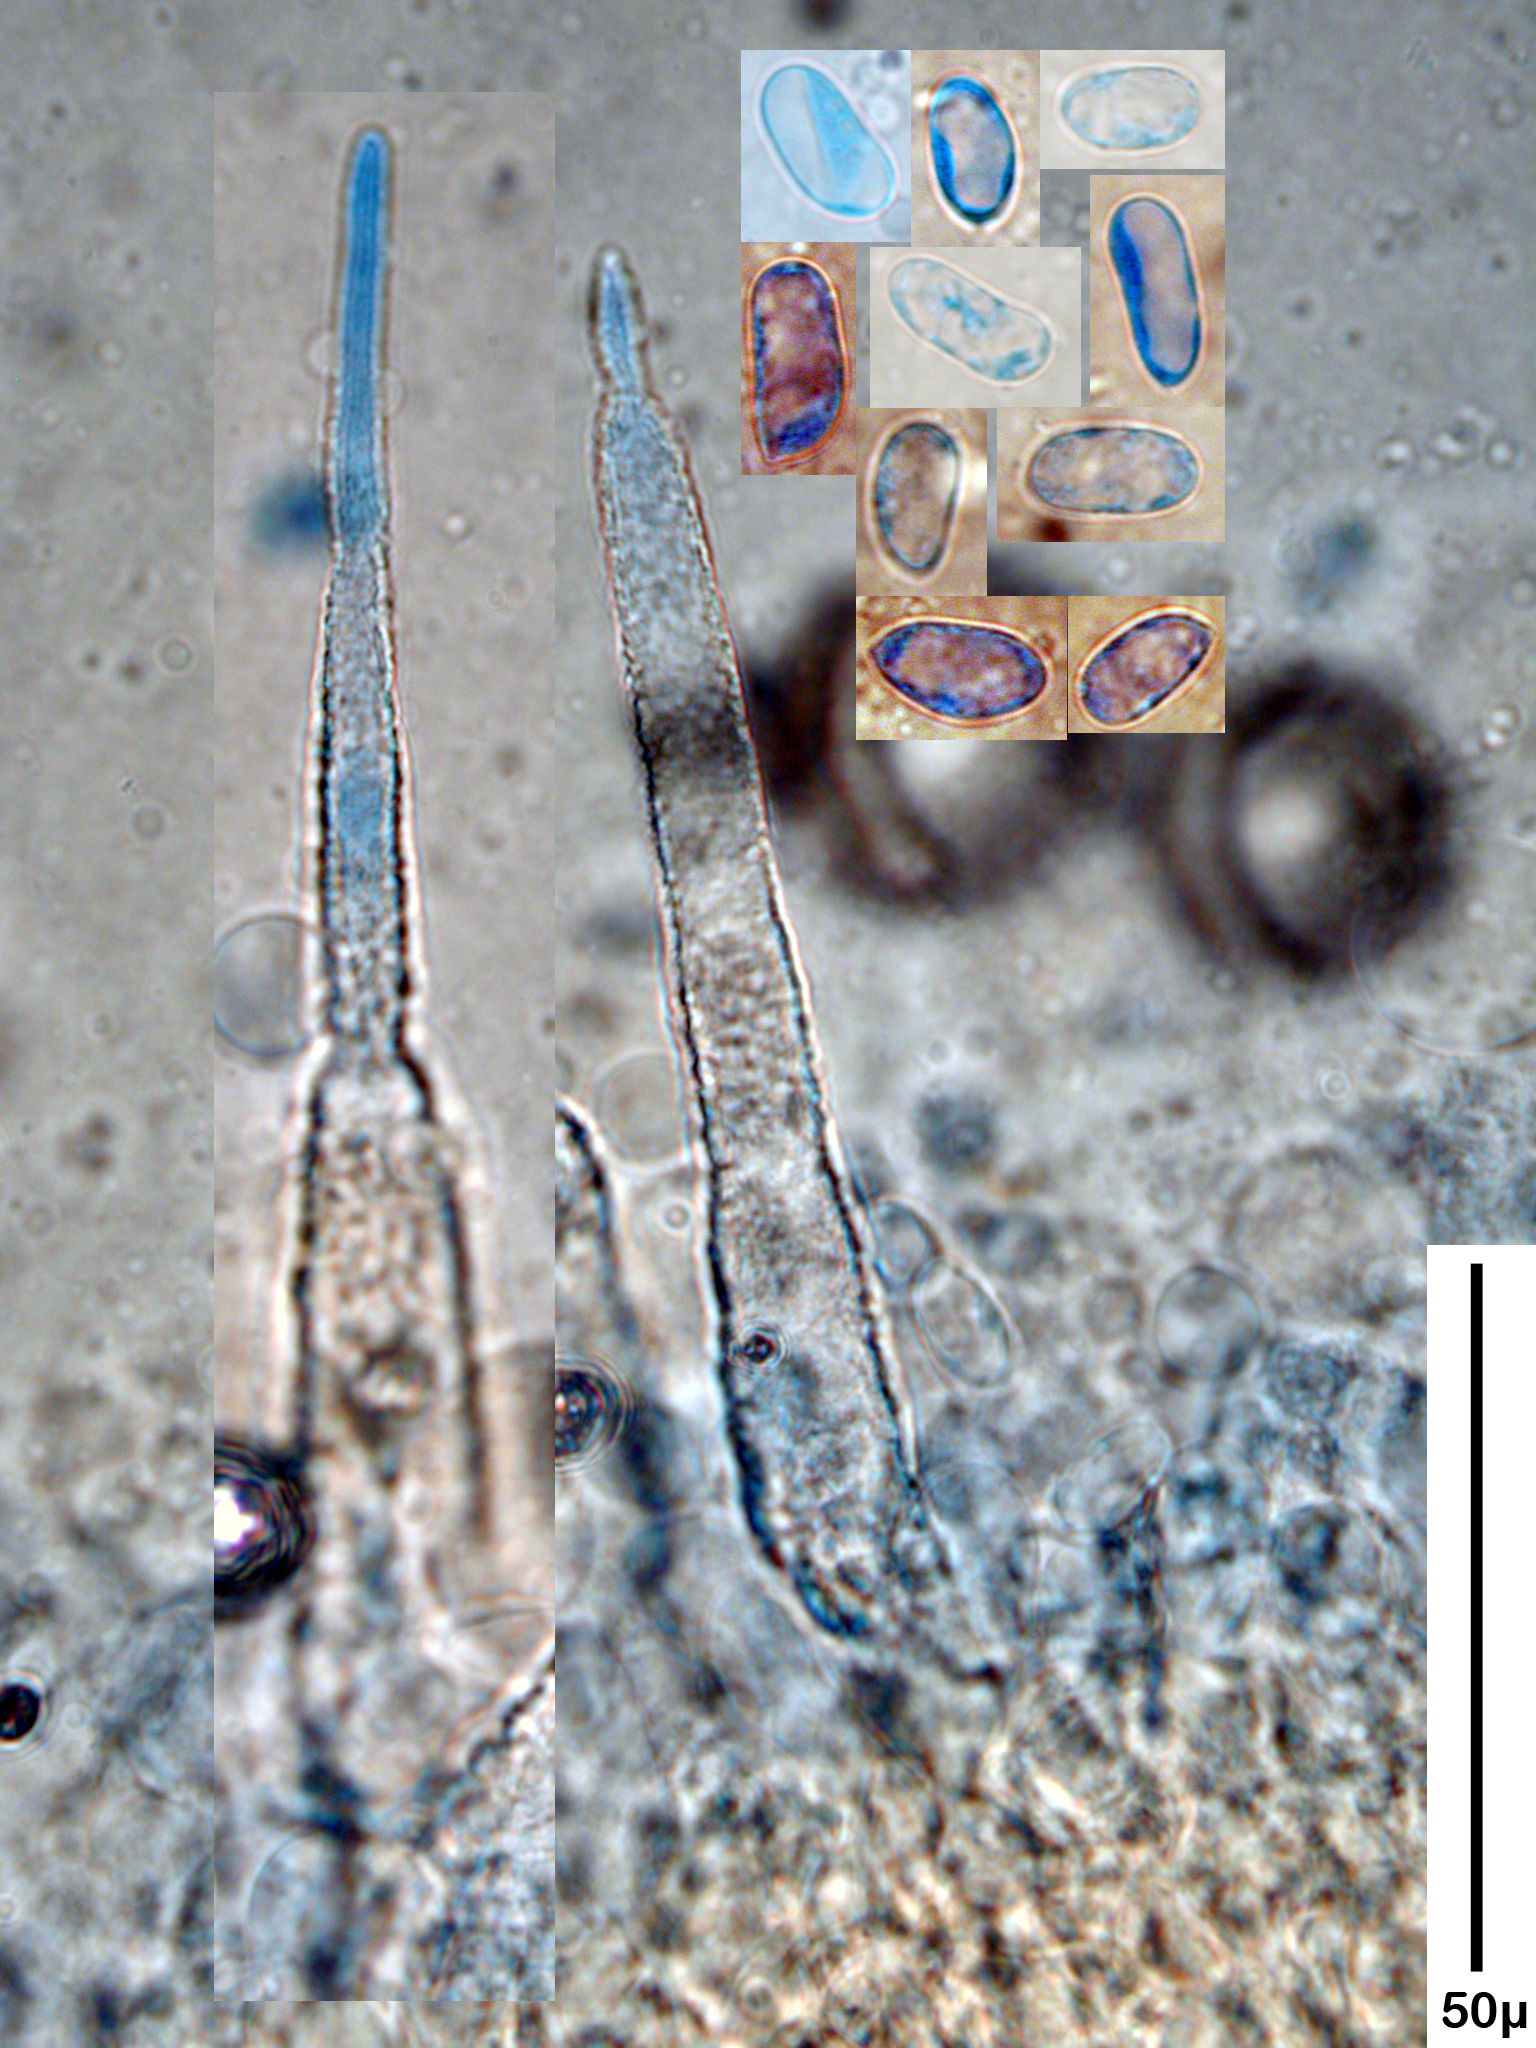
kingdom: Fungi
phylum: Basidiomycota
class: Agaricomycetes
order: Polyporales
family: Polyporaceae
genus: Lopharia
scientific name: Lopharia
